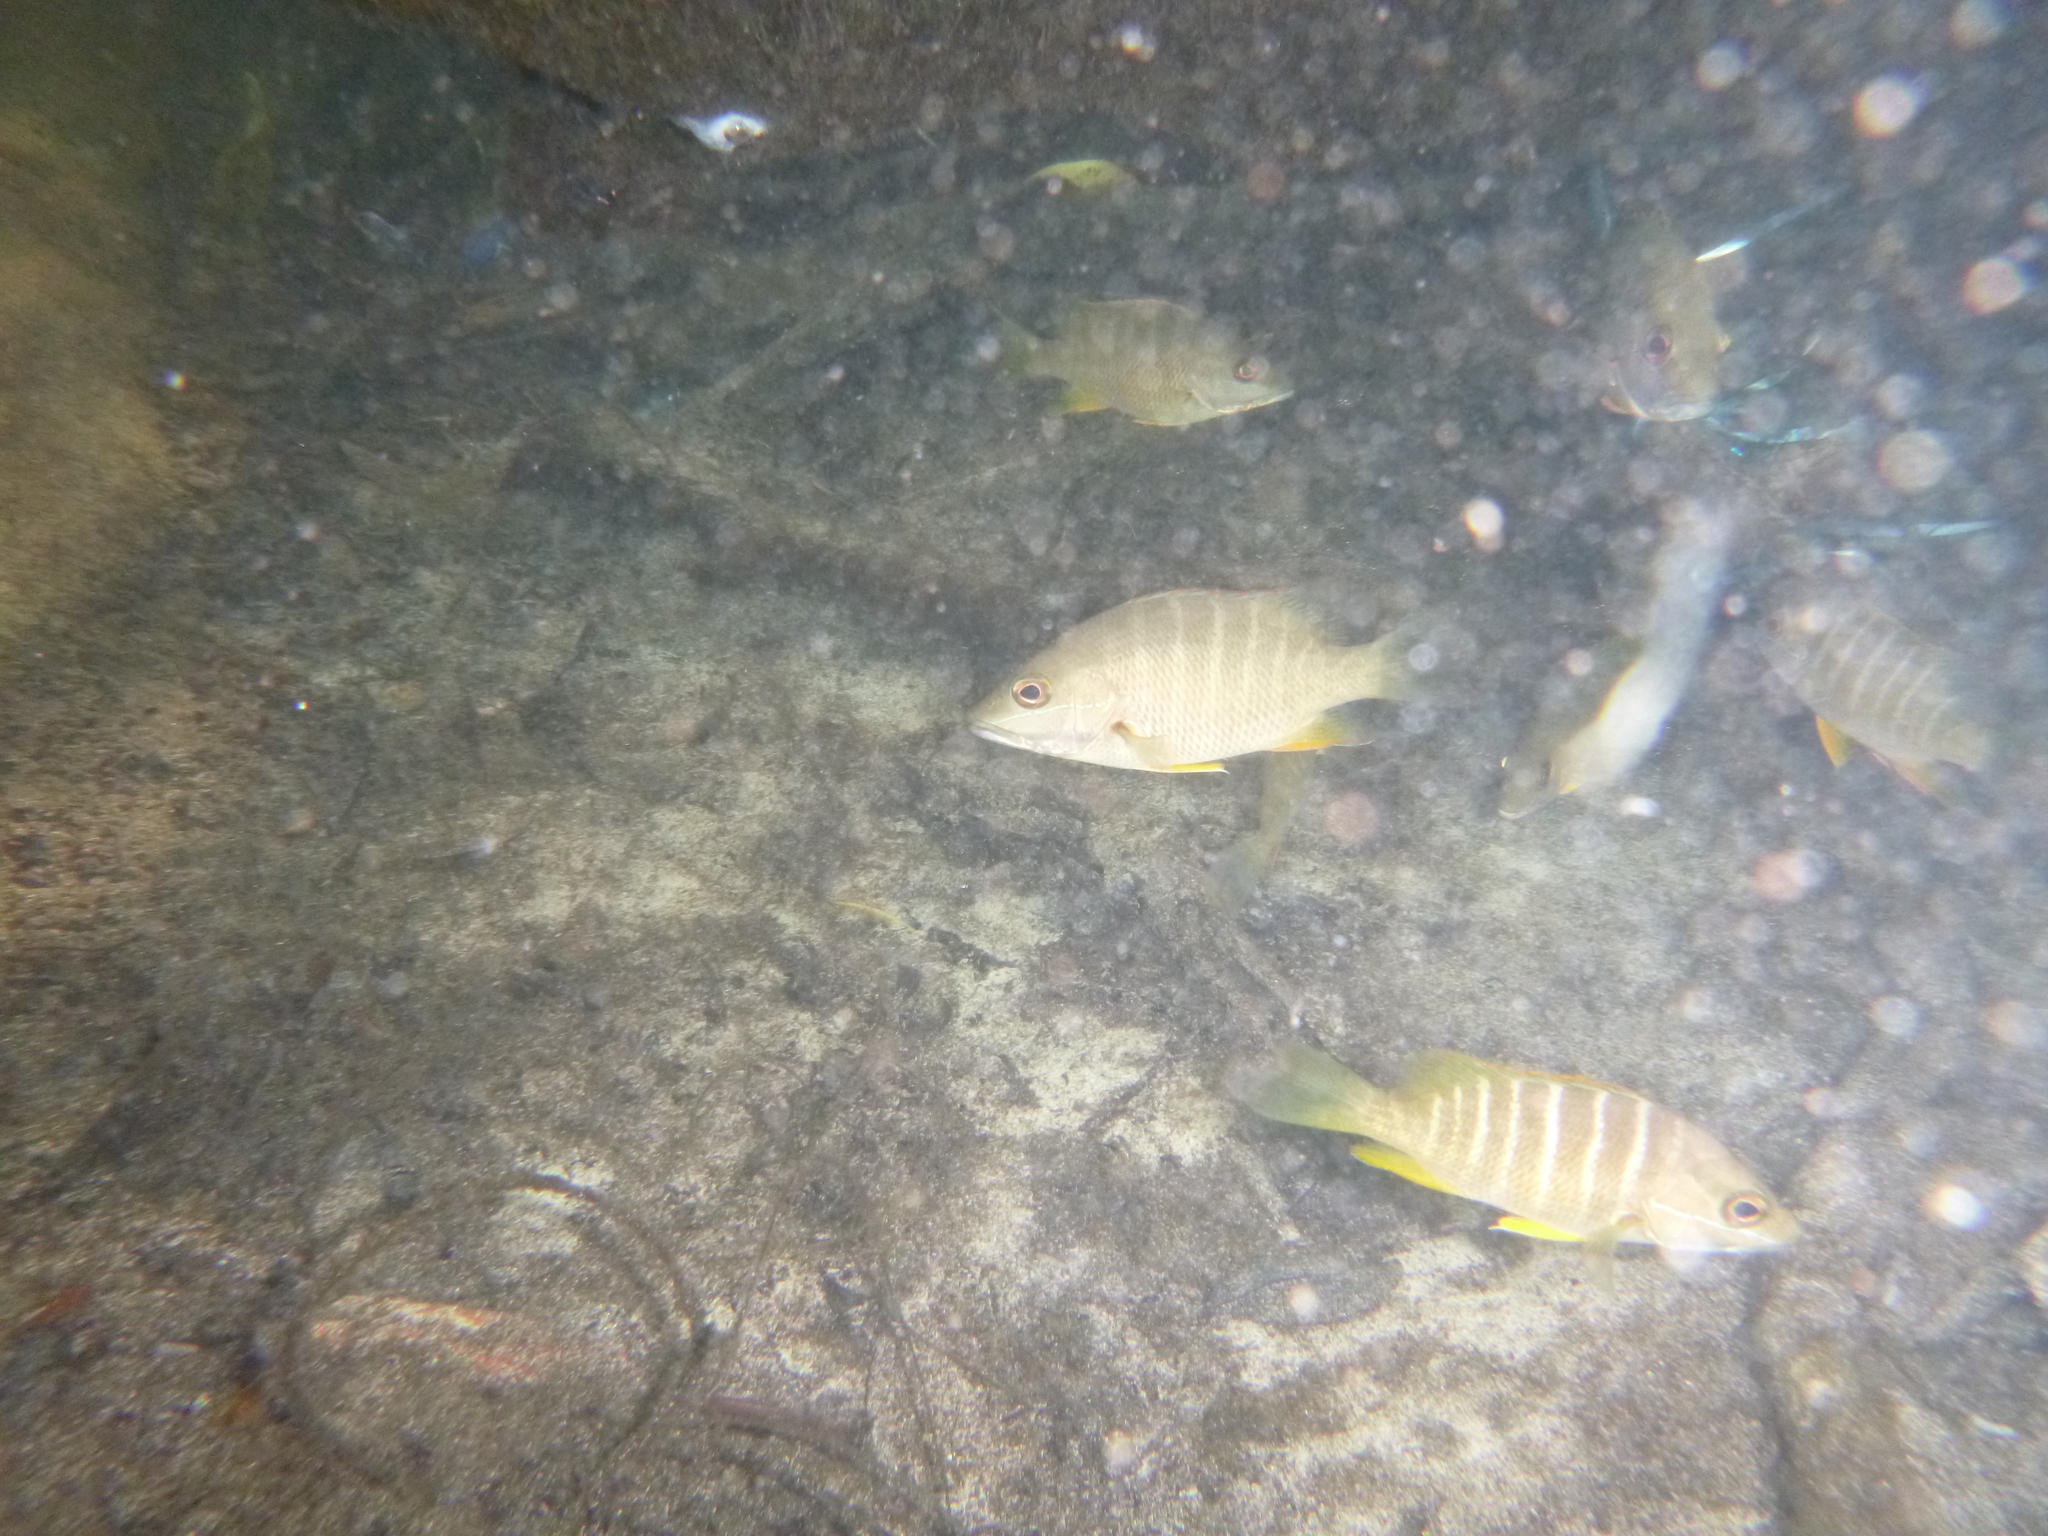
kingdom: Animalia
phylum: Chordata
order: Perciformes
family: Lutjanidae
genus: Lutjanus
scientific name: Lutjanus apodus
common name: Schoolmaster
